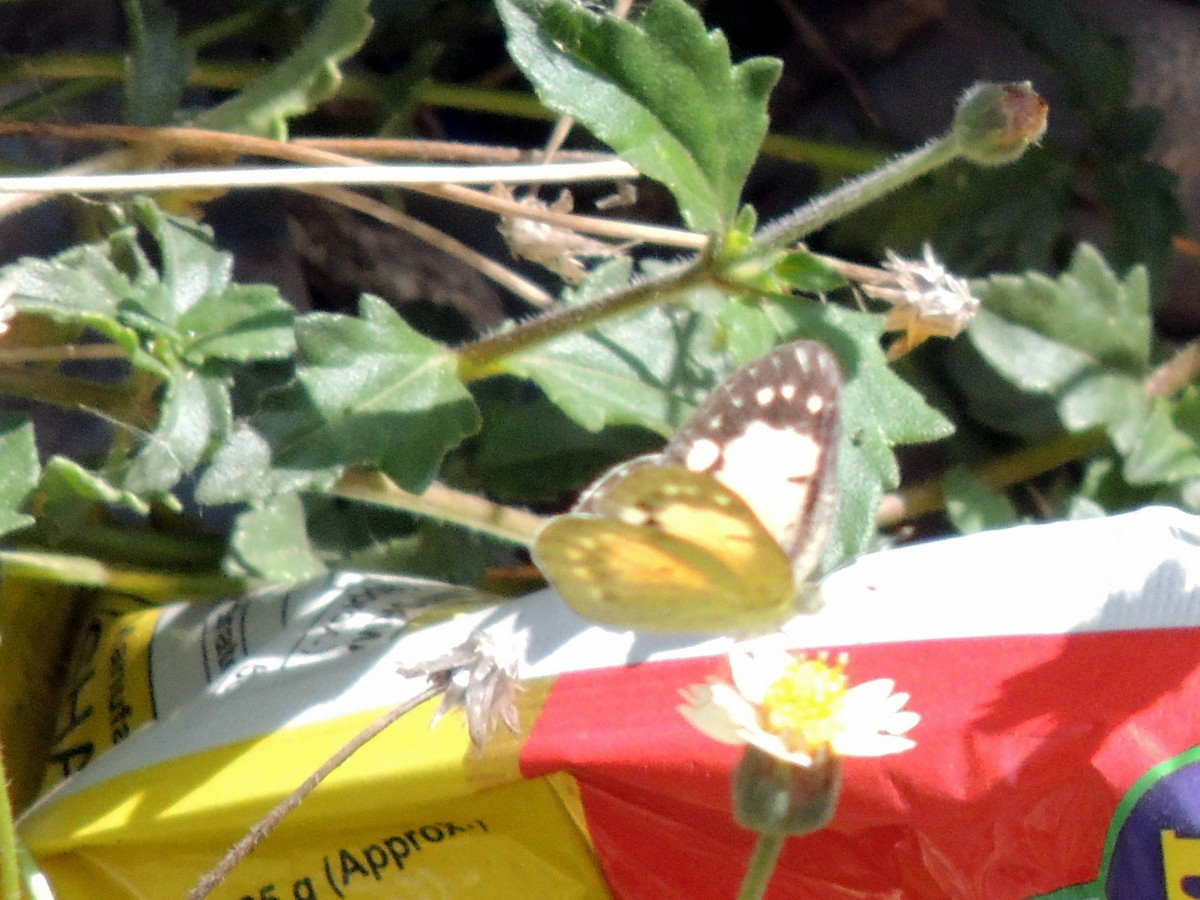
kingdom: Animalia
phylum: Arthropoda
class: Insecta
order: Lepidoptera
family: Pieridae
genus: Colotis
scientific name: Colotis amata
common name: Small salmon arab
